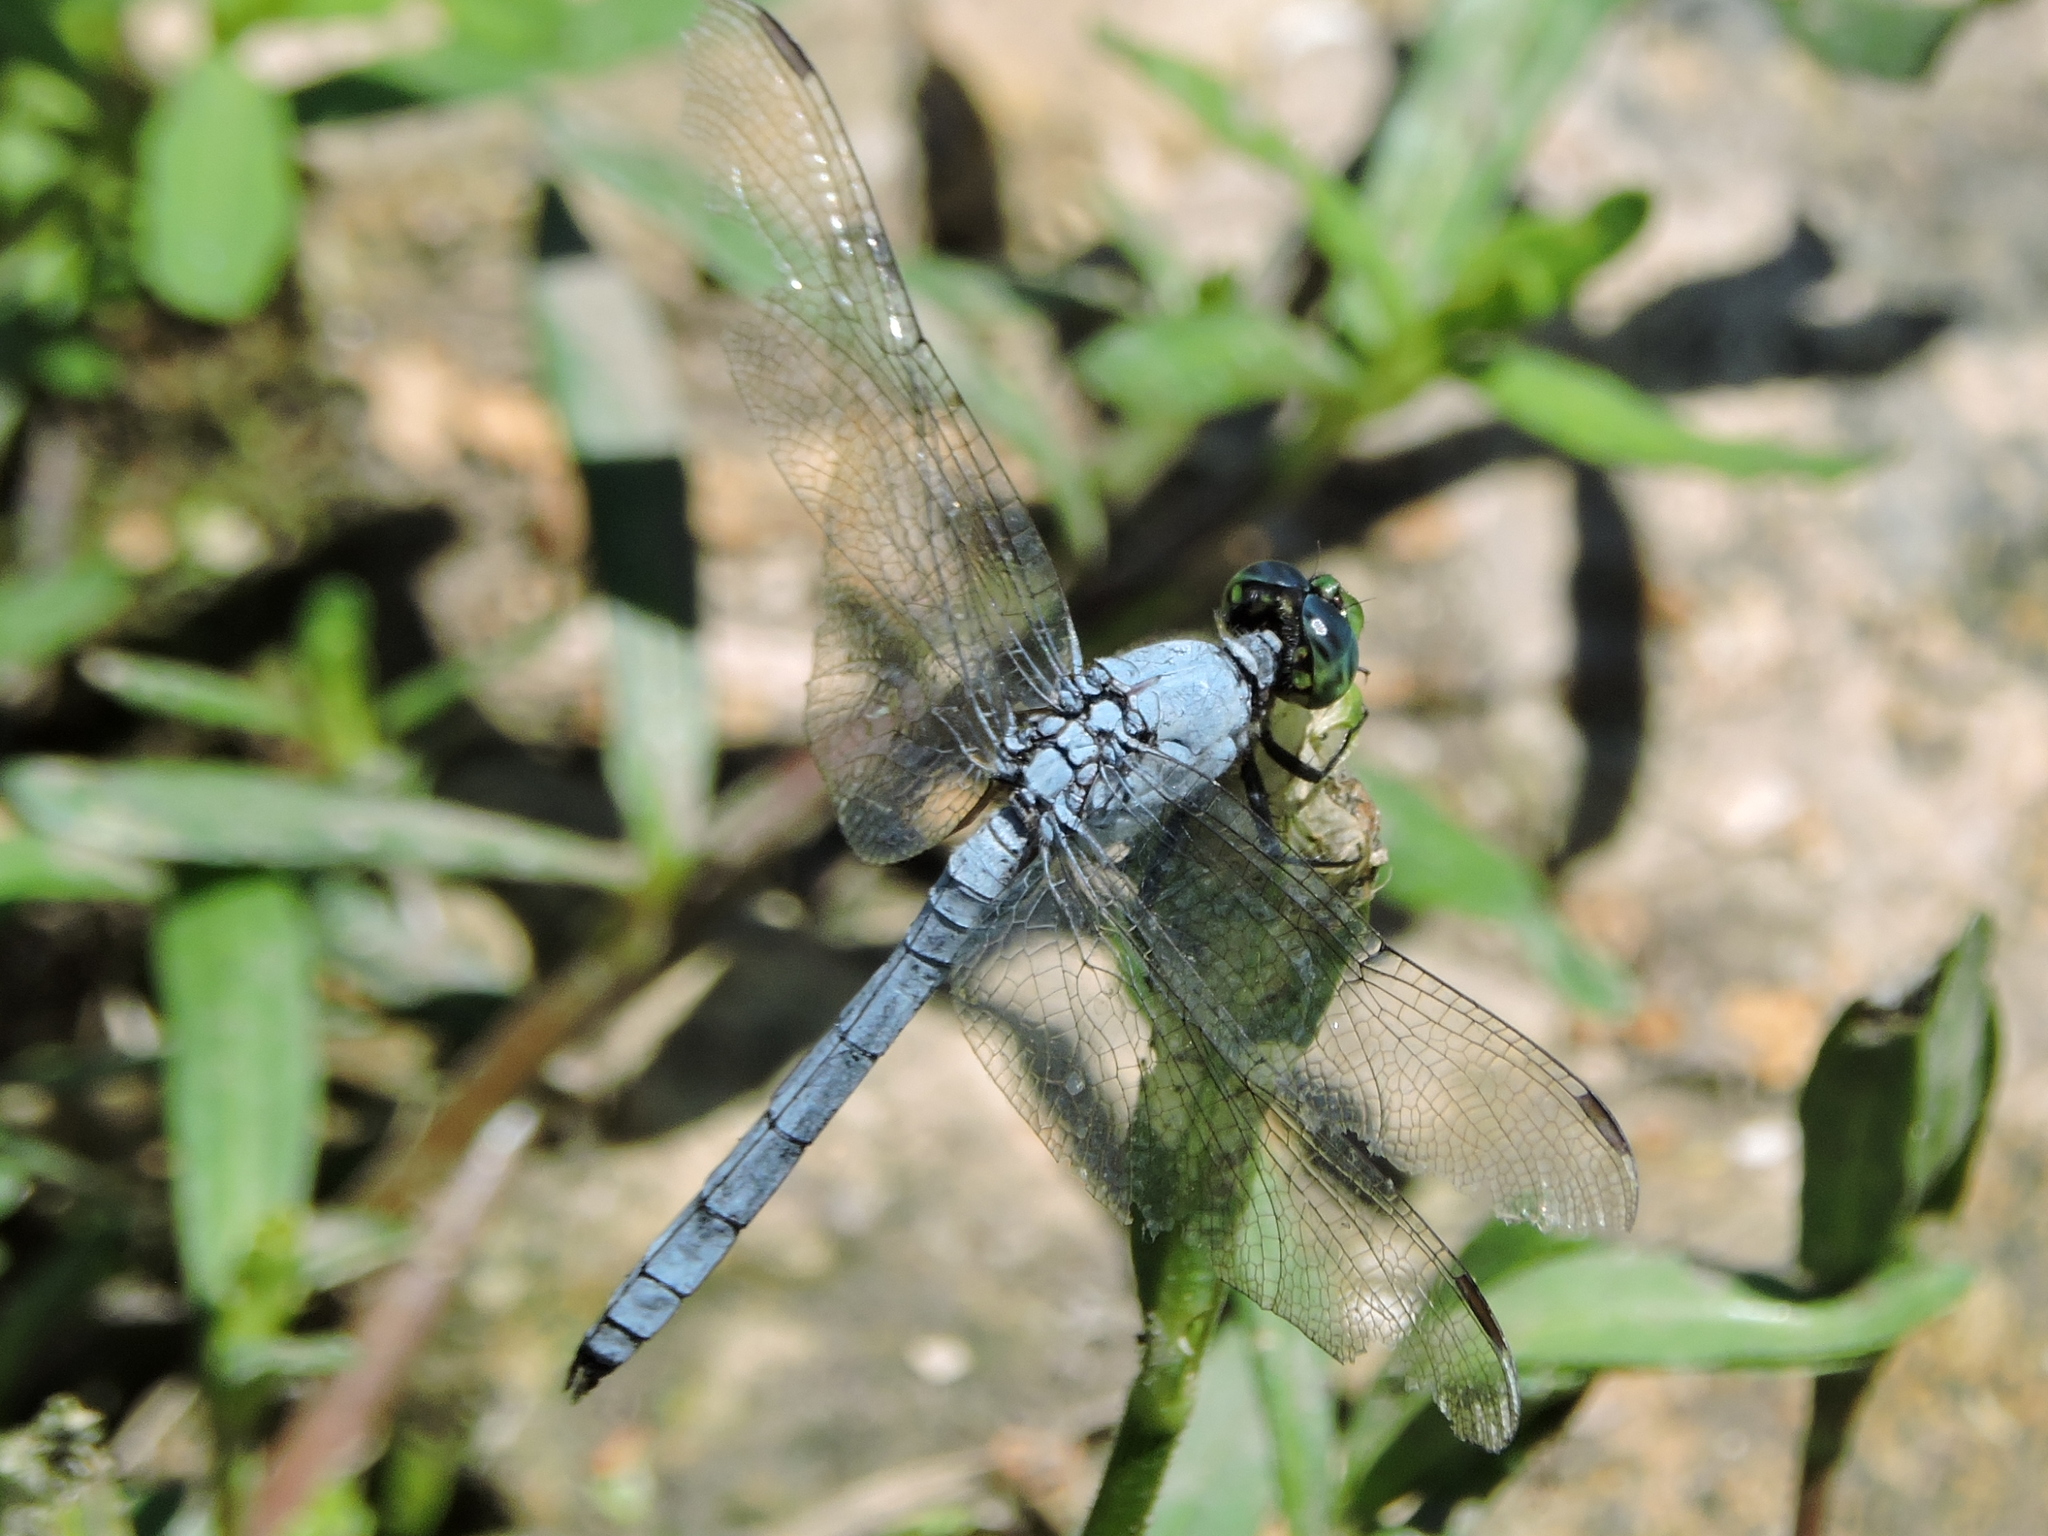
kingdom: Animalia
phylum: Arthropoda
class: Insecta
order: Odonata
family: Libellulidae
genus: Erythemis
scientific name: Erythemis simplicicollis
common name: Eastern pondhawk
